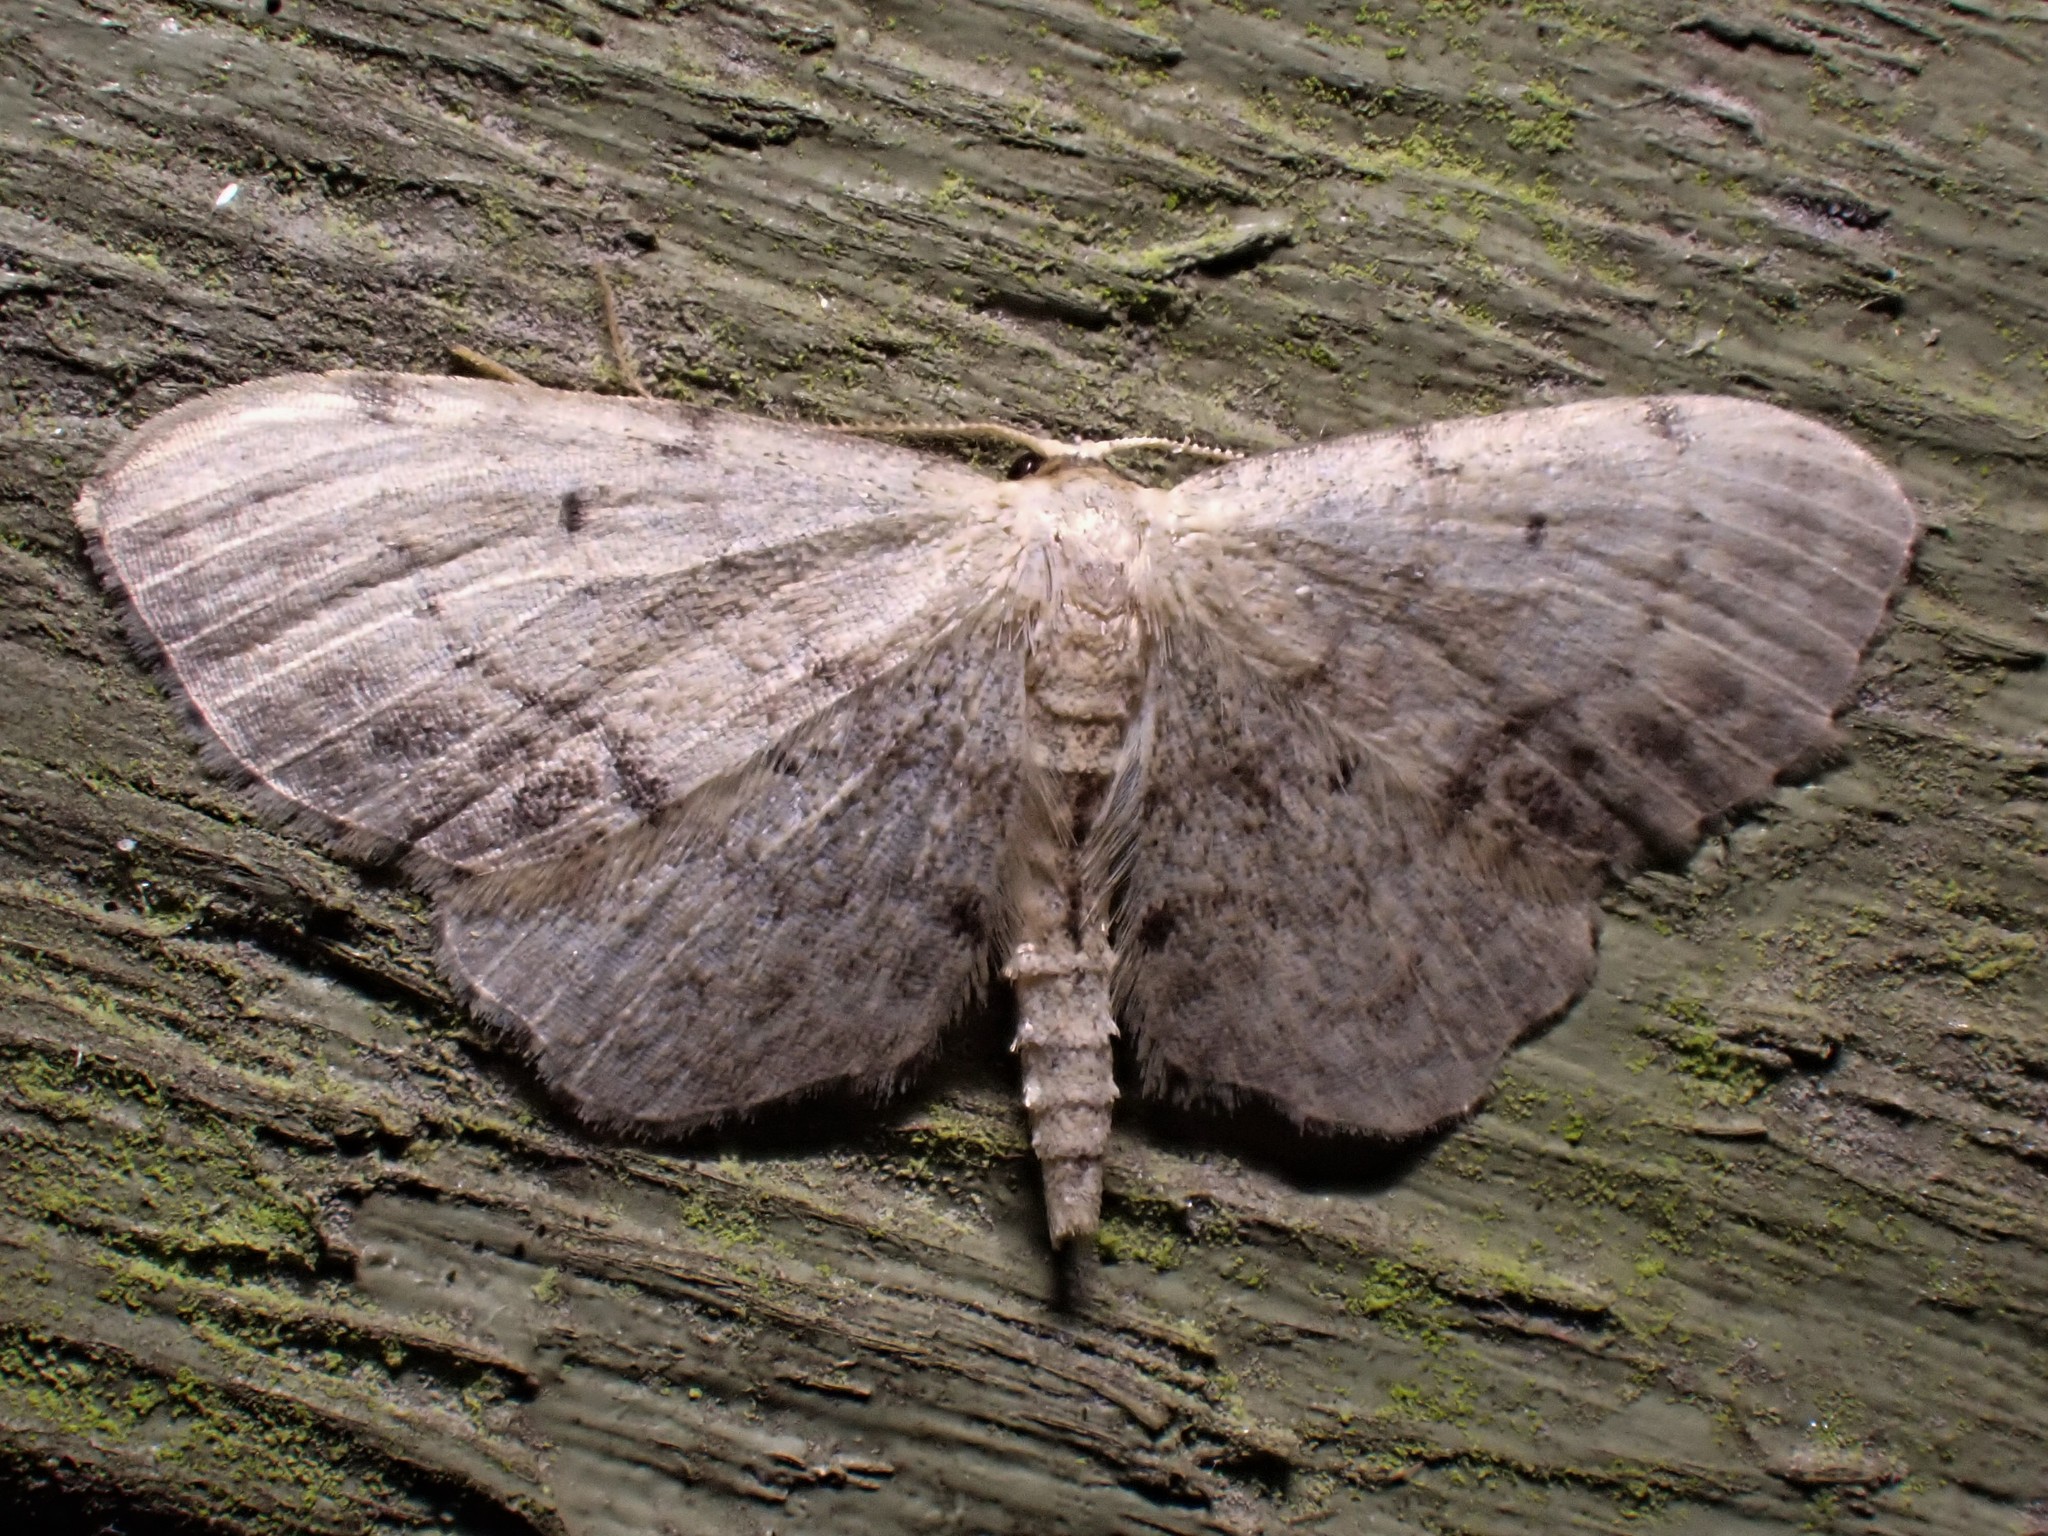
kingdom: Animalia
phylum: Arthropoda
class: Insecta
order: Lepidoptera
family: Geometridae
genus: Idaea
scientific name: Idaea dimidiata
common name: Single-dotted wave
